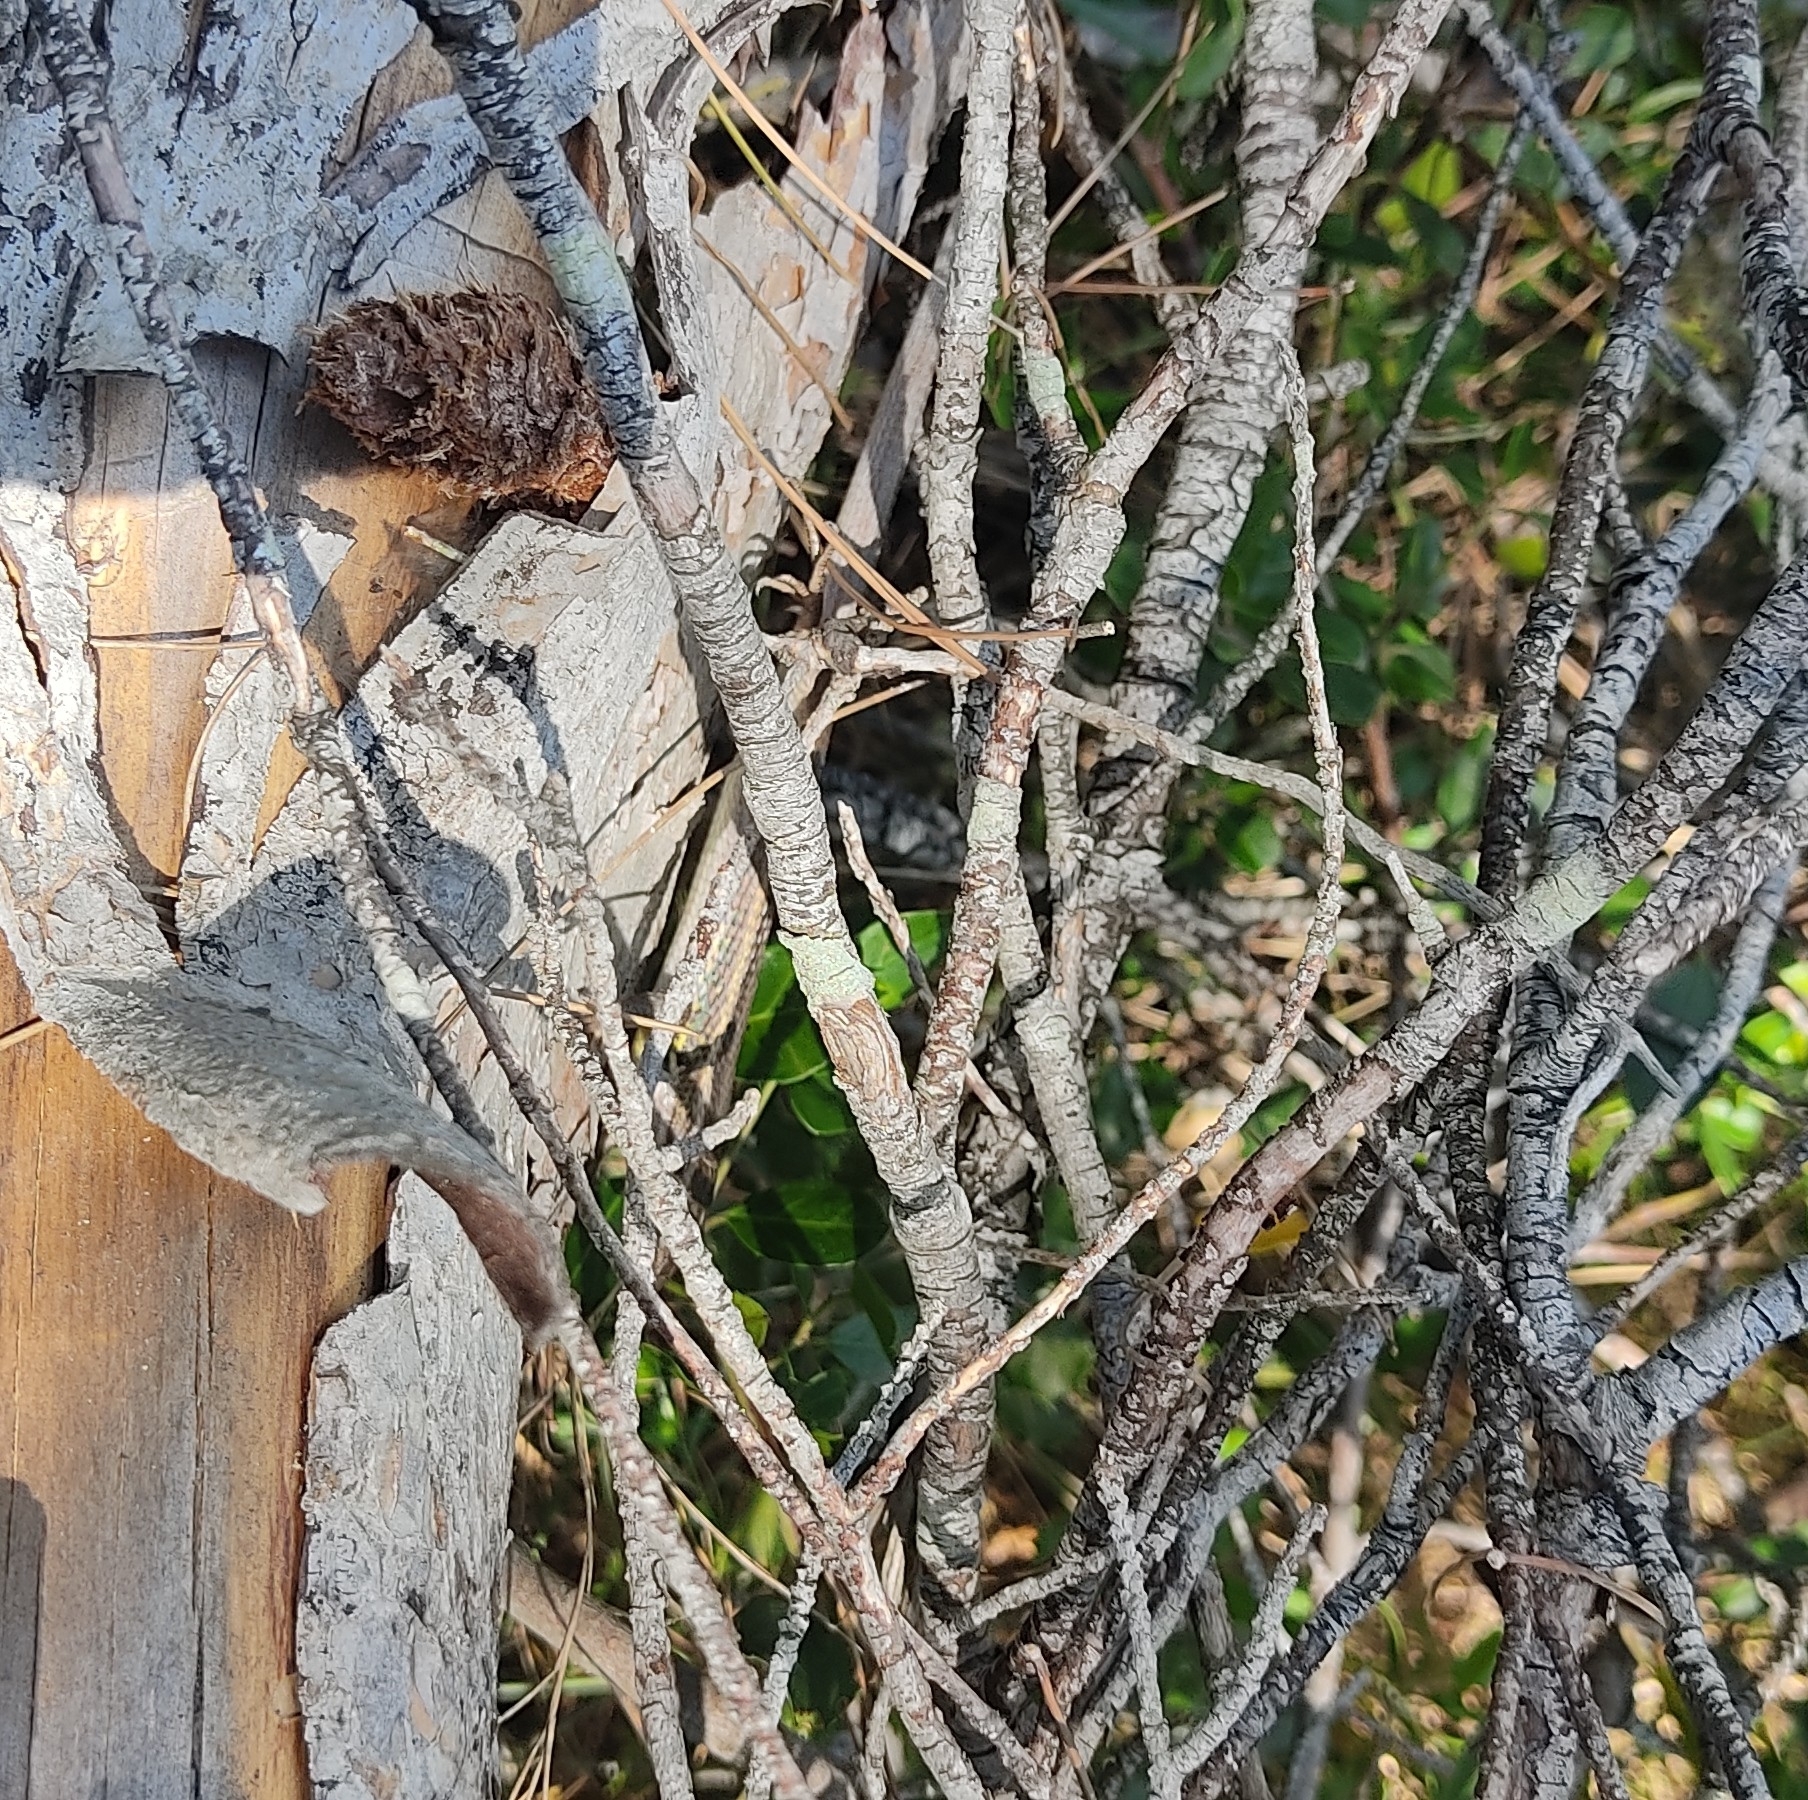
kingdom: Animalia
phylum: Chordata
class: Squamata
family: Lacertidae
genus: Psammodromus
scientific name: Psammodromus algirus
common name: Algerian psammodromus
